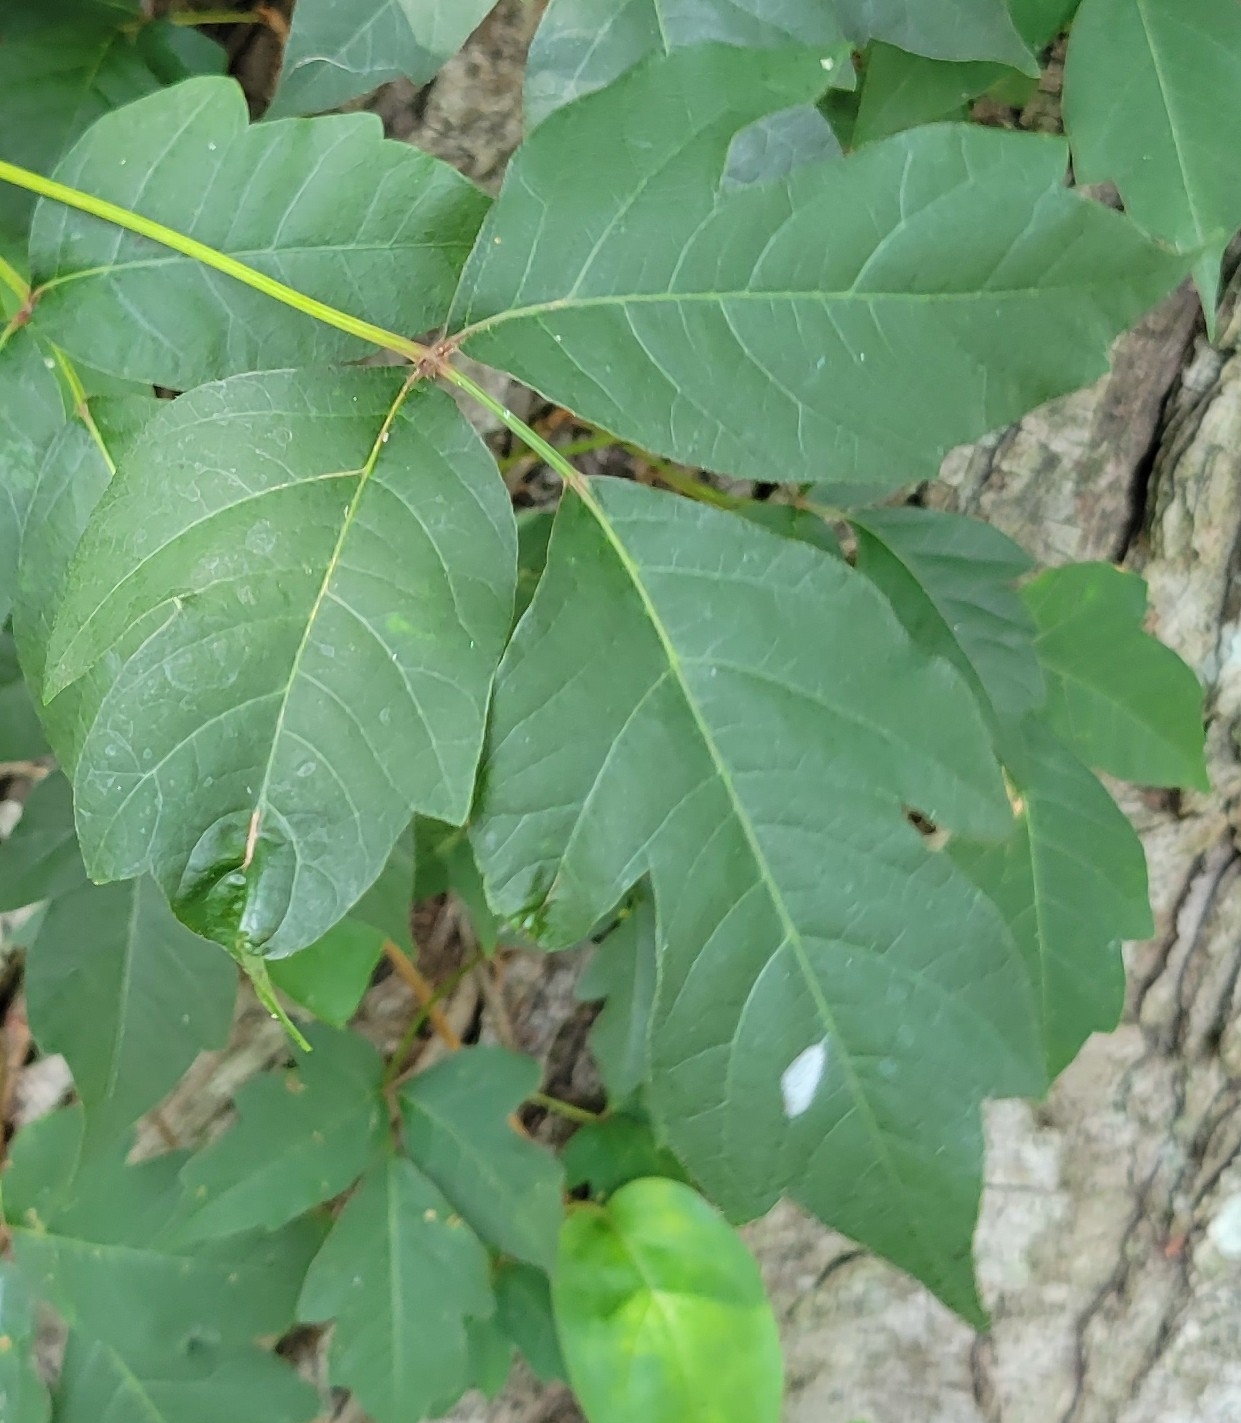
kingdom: Plantae
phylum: Tracheophyta
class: Magnoliopsida
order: Sapindales
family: Anacardiaceae
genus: Toxicodendron
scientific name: Toxicodendron radicans
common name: Poison ivy
